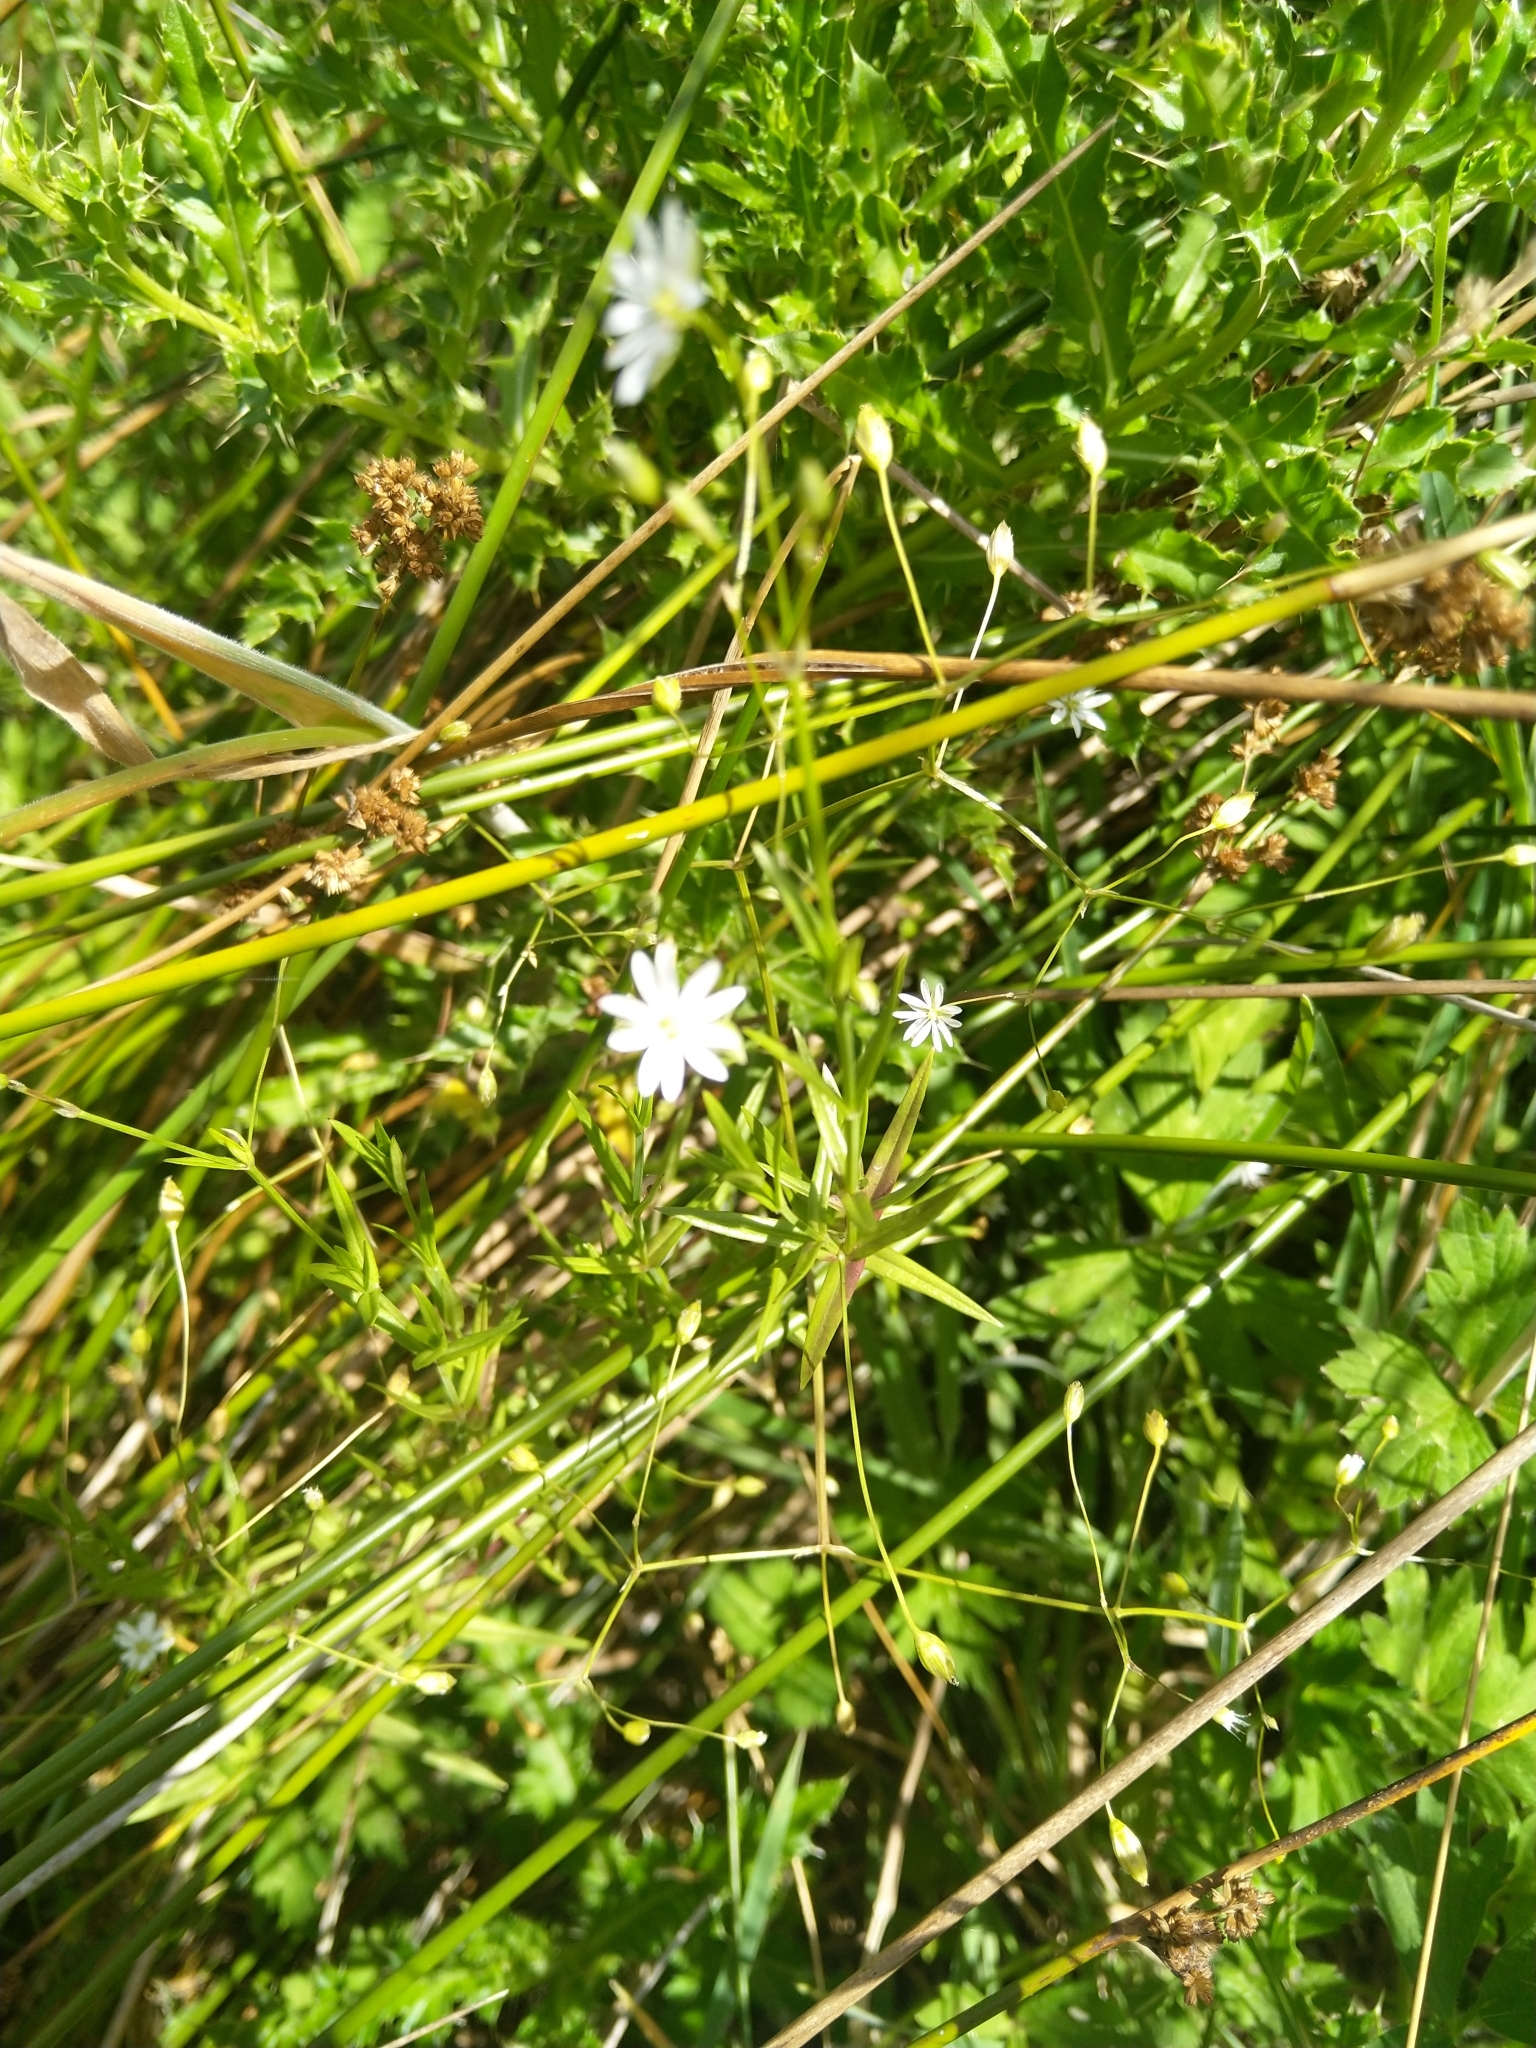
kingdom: Plantae
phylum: Tracheophyta
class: Magnoliopsida
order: Caryophyllales
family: Caryophyllaceae
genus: Stellaria
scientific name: Stellaria graminea
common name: Grass-like starwort
